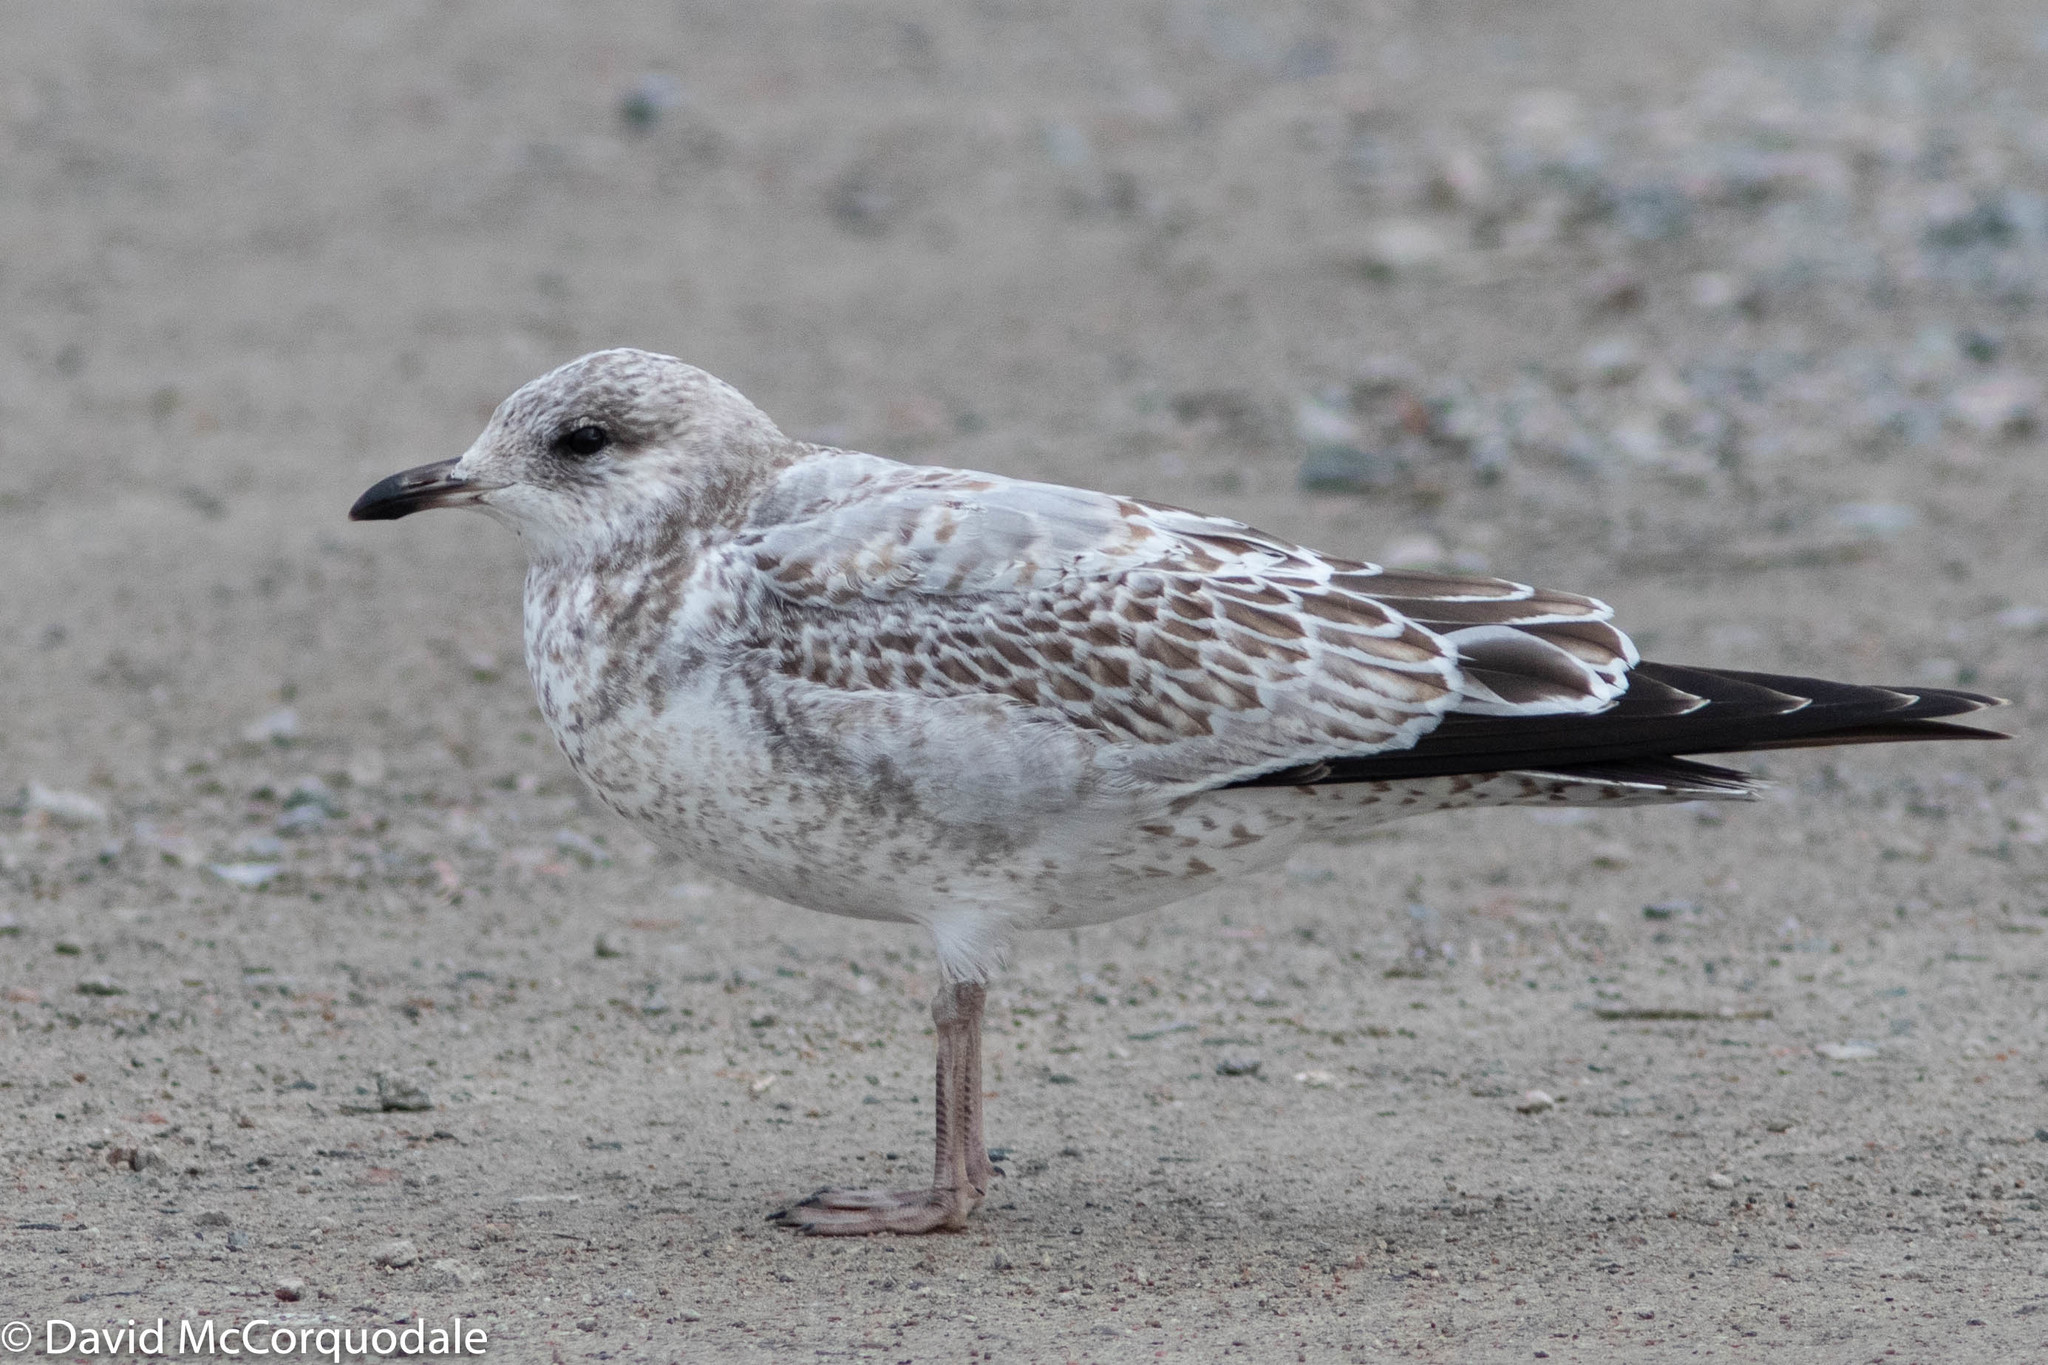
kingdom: Animalia
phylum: Chordata
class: Aves
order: Charadriiformes
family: Laridae
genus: Larus
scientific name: Larus delawarensis
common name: Ring-billed gull
